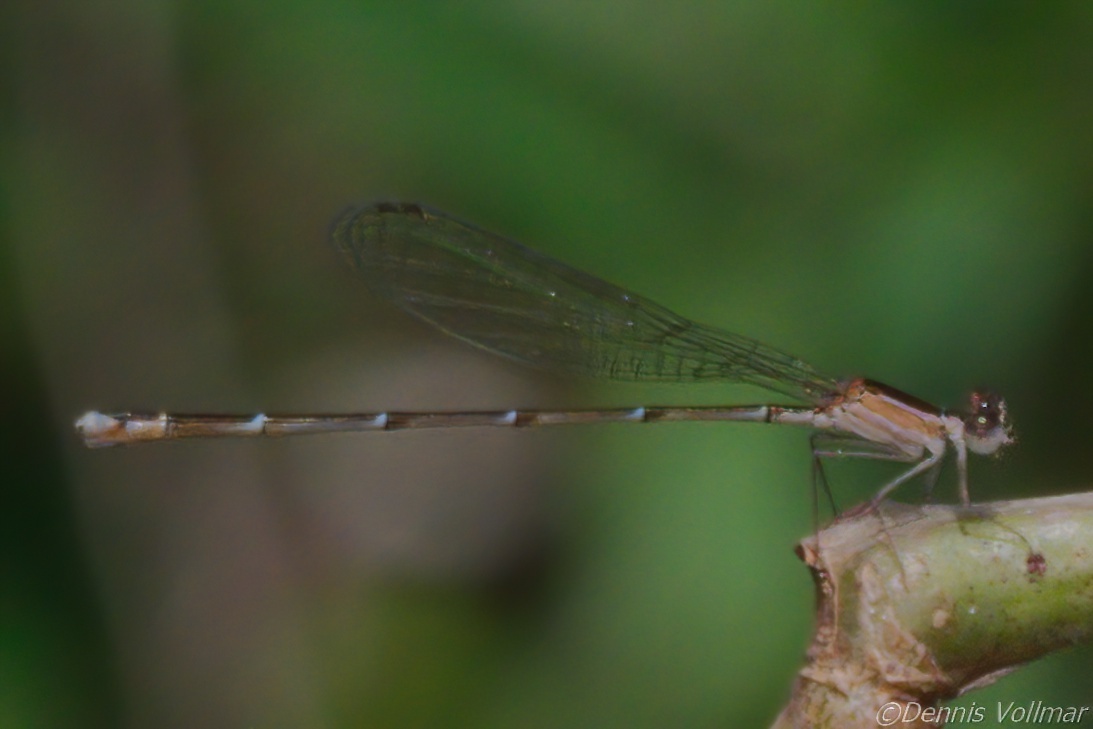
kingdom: Animalia
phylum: Arthropoda
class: Insecta
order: Odonata
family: Coenagrionidae
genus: Nehalennia
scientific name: Nehalennia pallidula
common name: Everglades sprite
